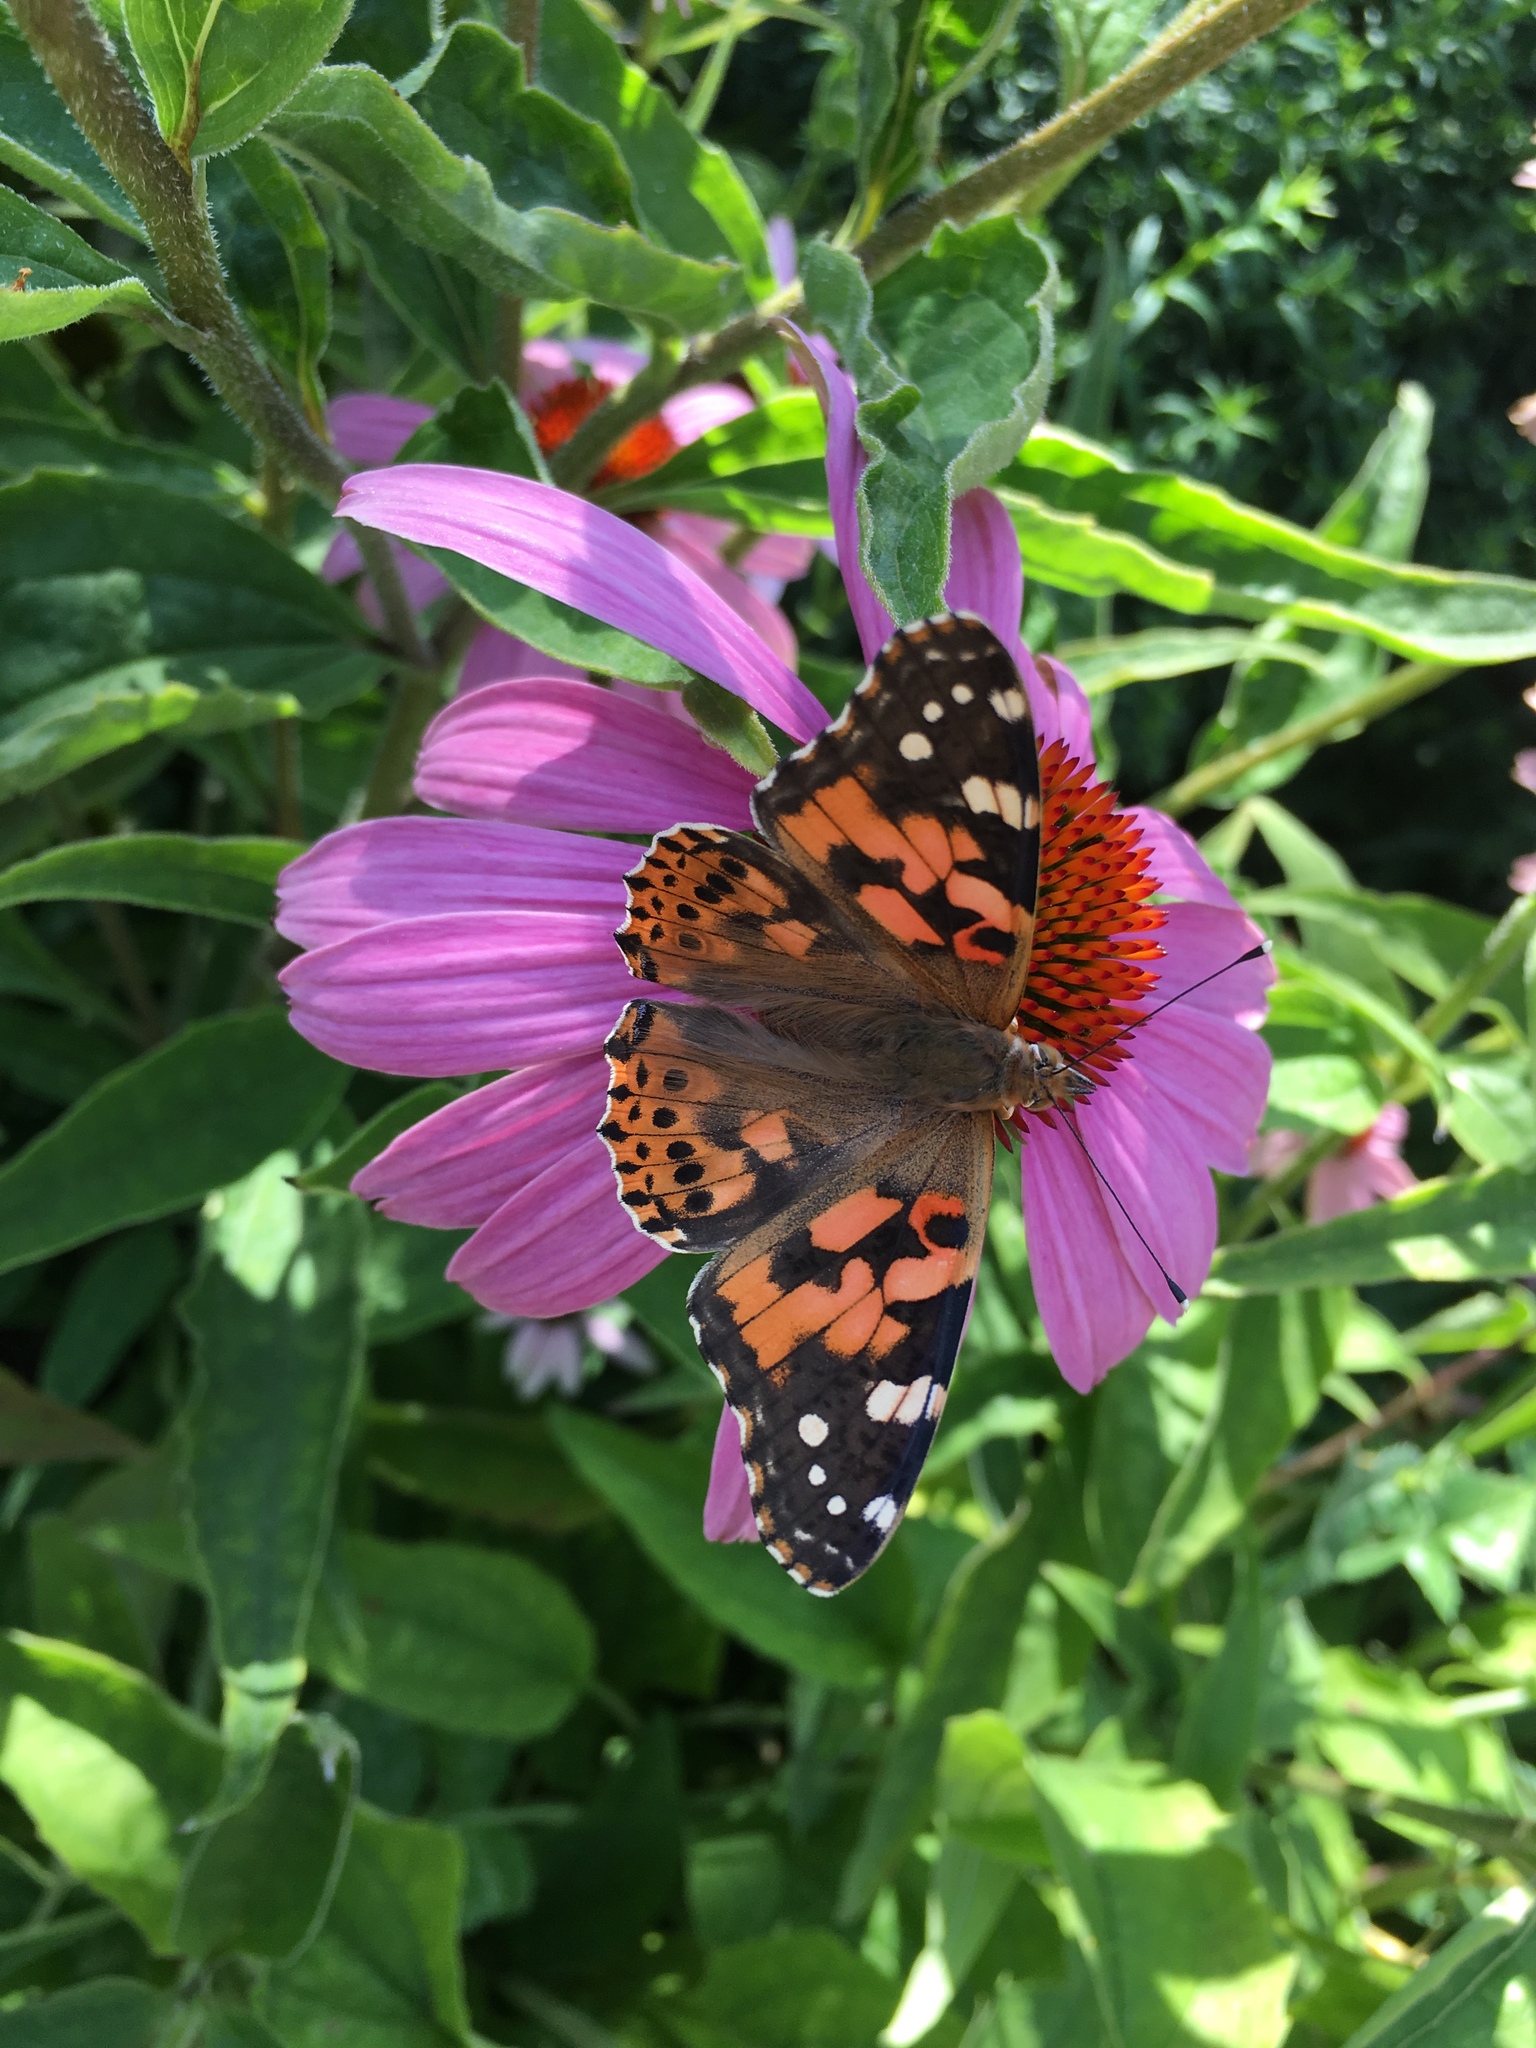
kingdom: Animalia
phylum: Arthropoda
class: Insecta
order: Lepidoptera
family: Nymphalidae
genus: Vanessa
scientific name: Vanessa cardui
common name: Painted lady
